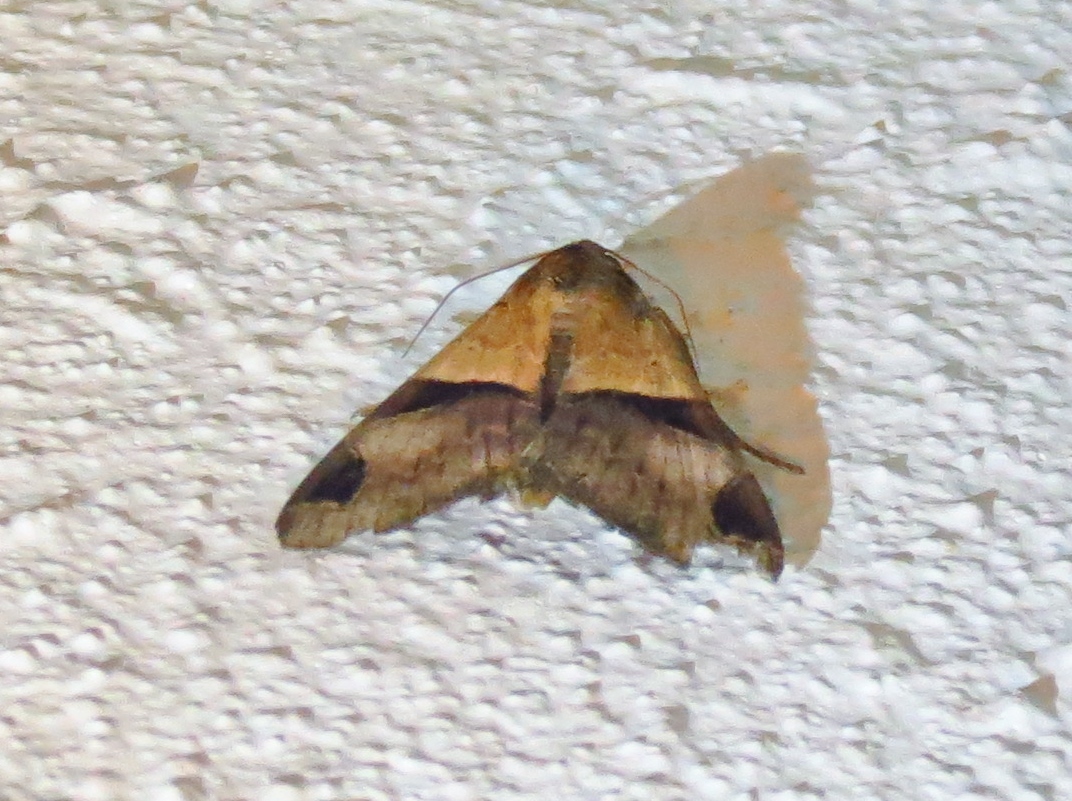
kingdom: Animalia
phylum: Arthropoda
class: Insecta
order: Lepidoptera
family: Erebidae
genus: Melipotis
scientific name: Melipotis fasciolaris
